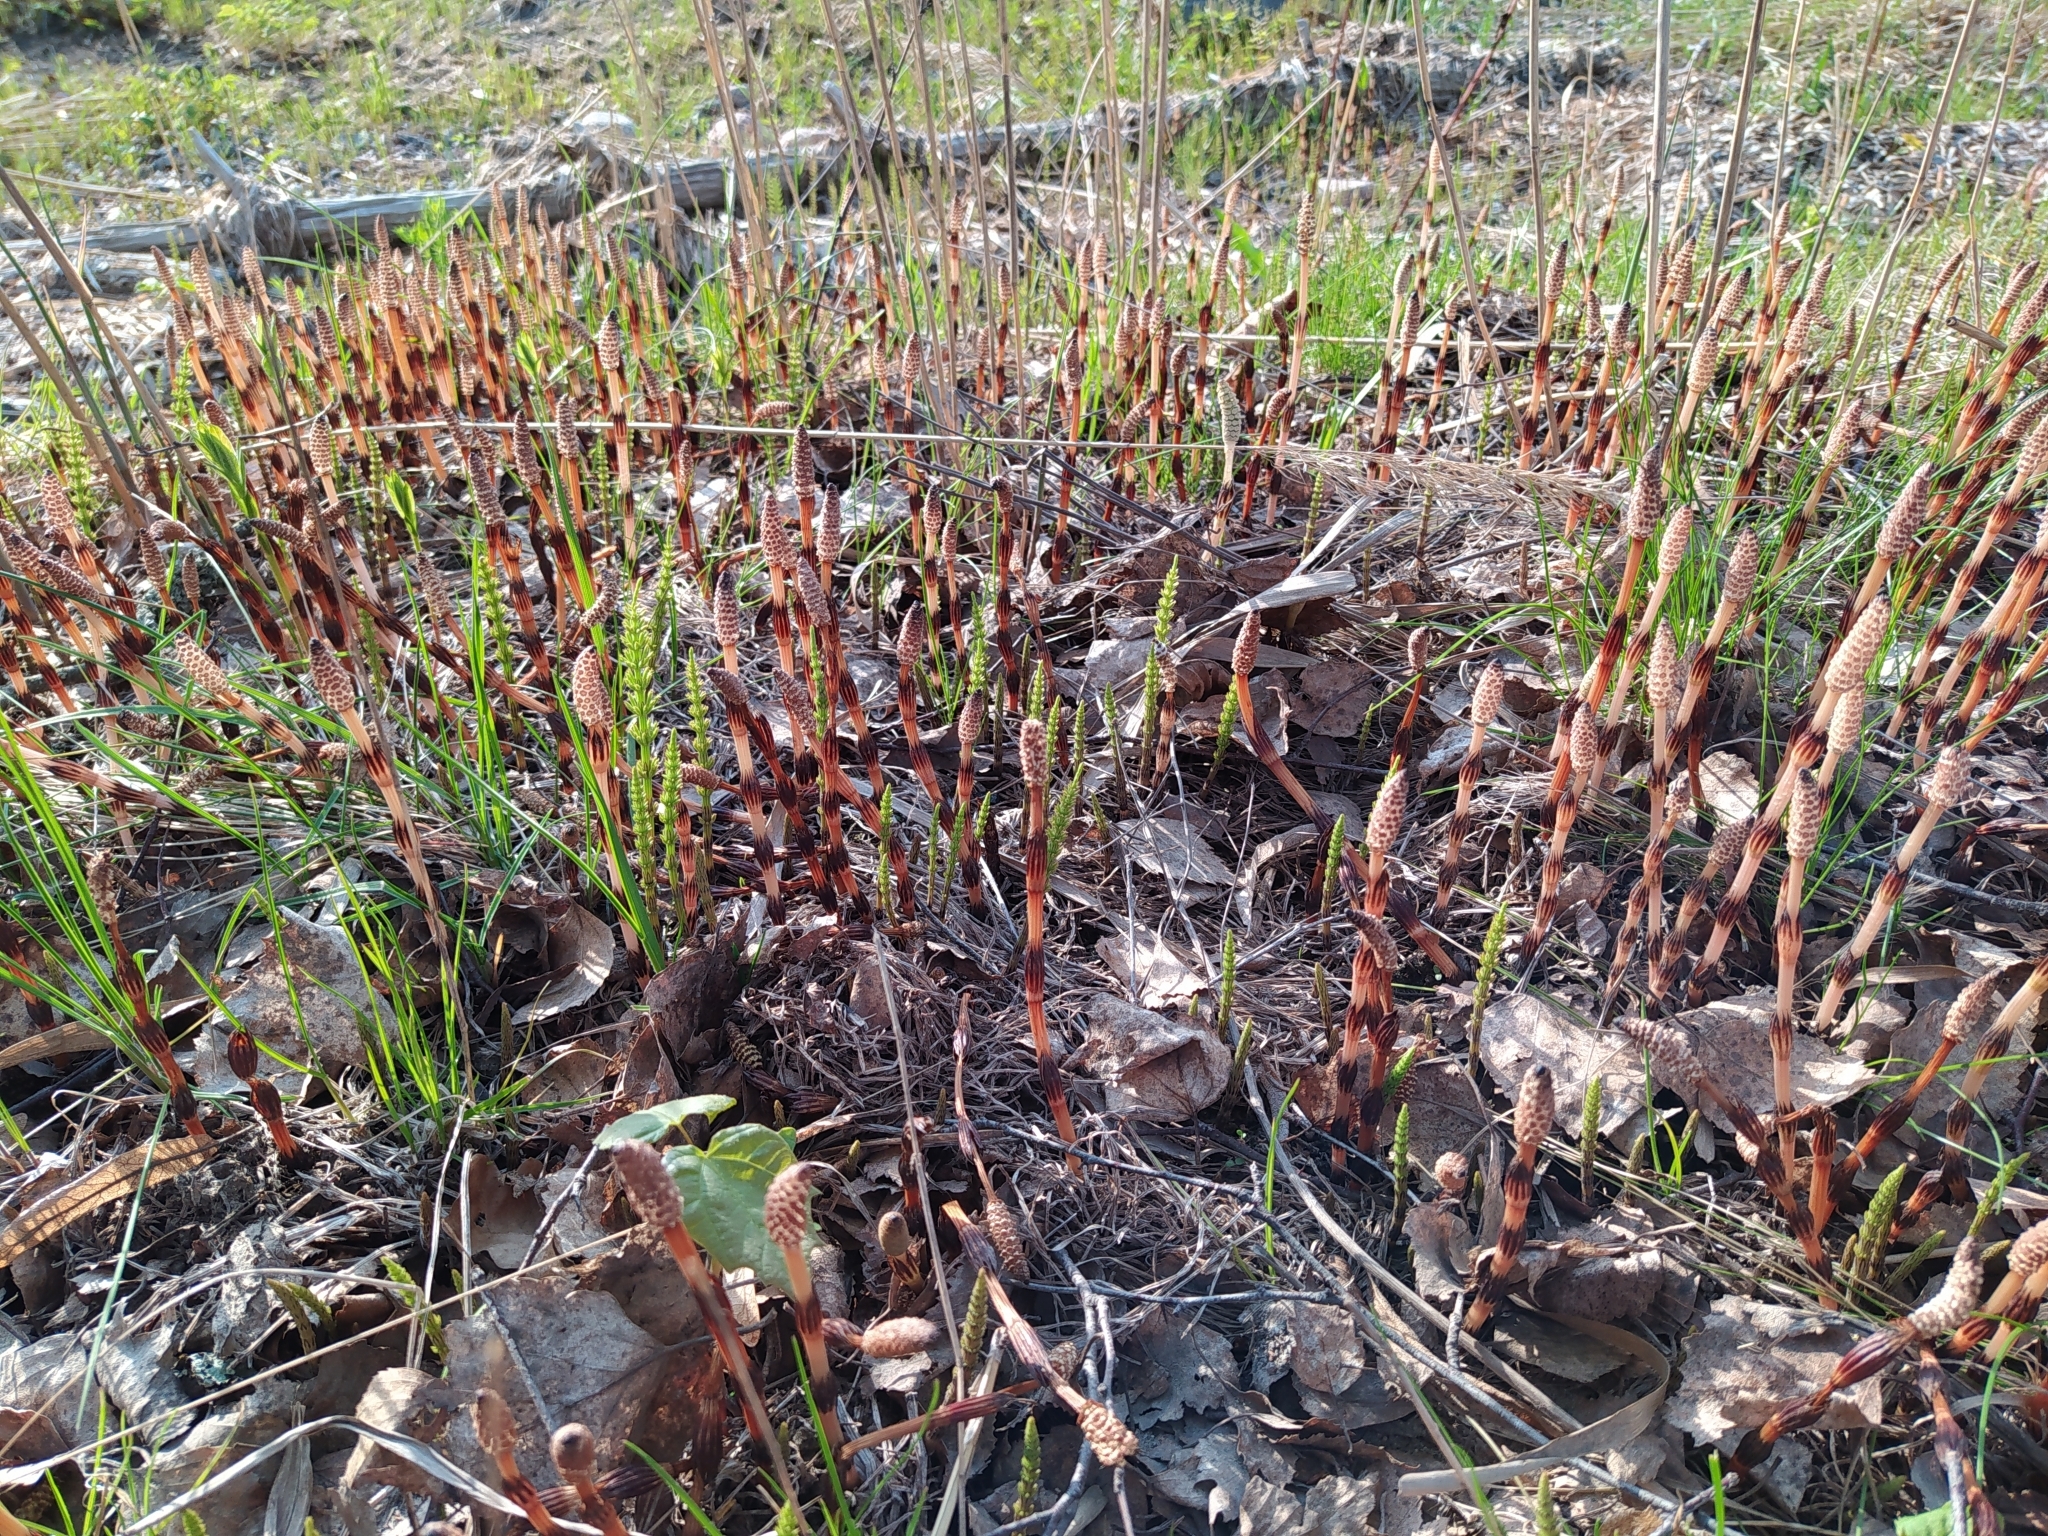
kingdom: Plantae
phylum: Tracheophyta
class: Polypodiopsida
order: Equisetales
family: Equisetaceae
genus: Equisetum
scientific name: Equisetum arvense
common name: Field horsetail
